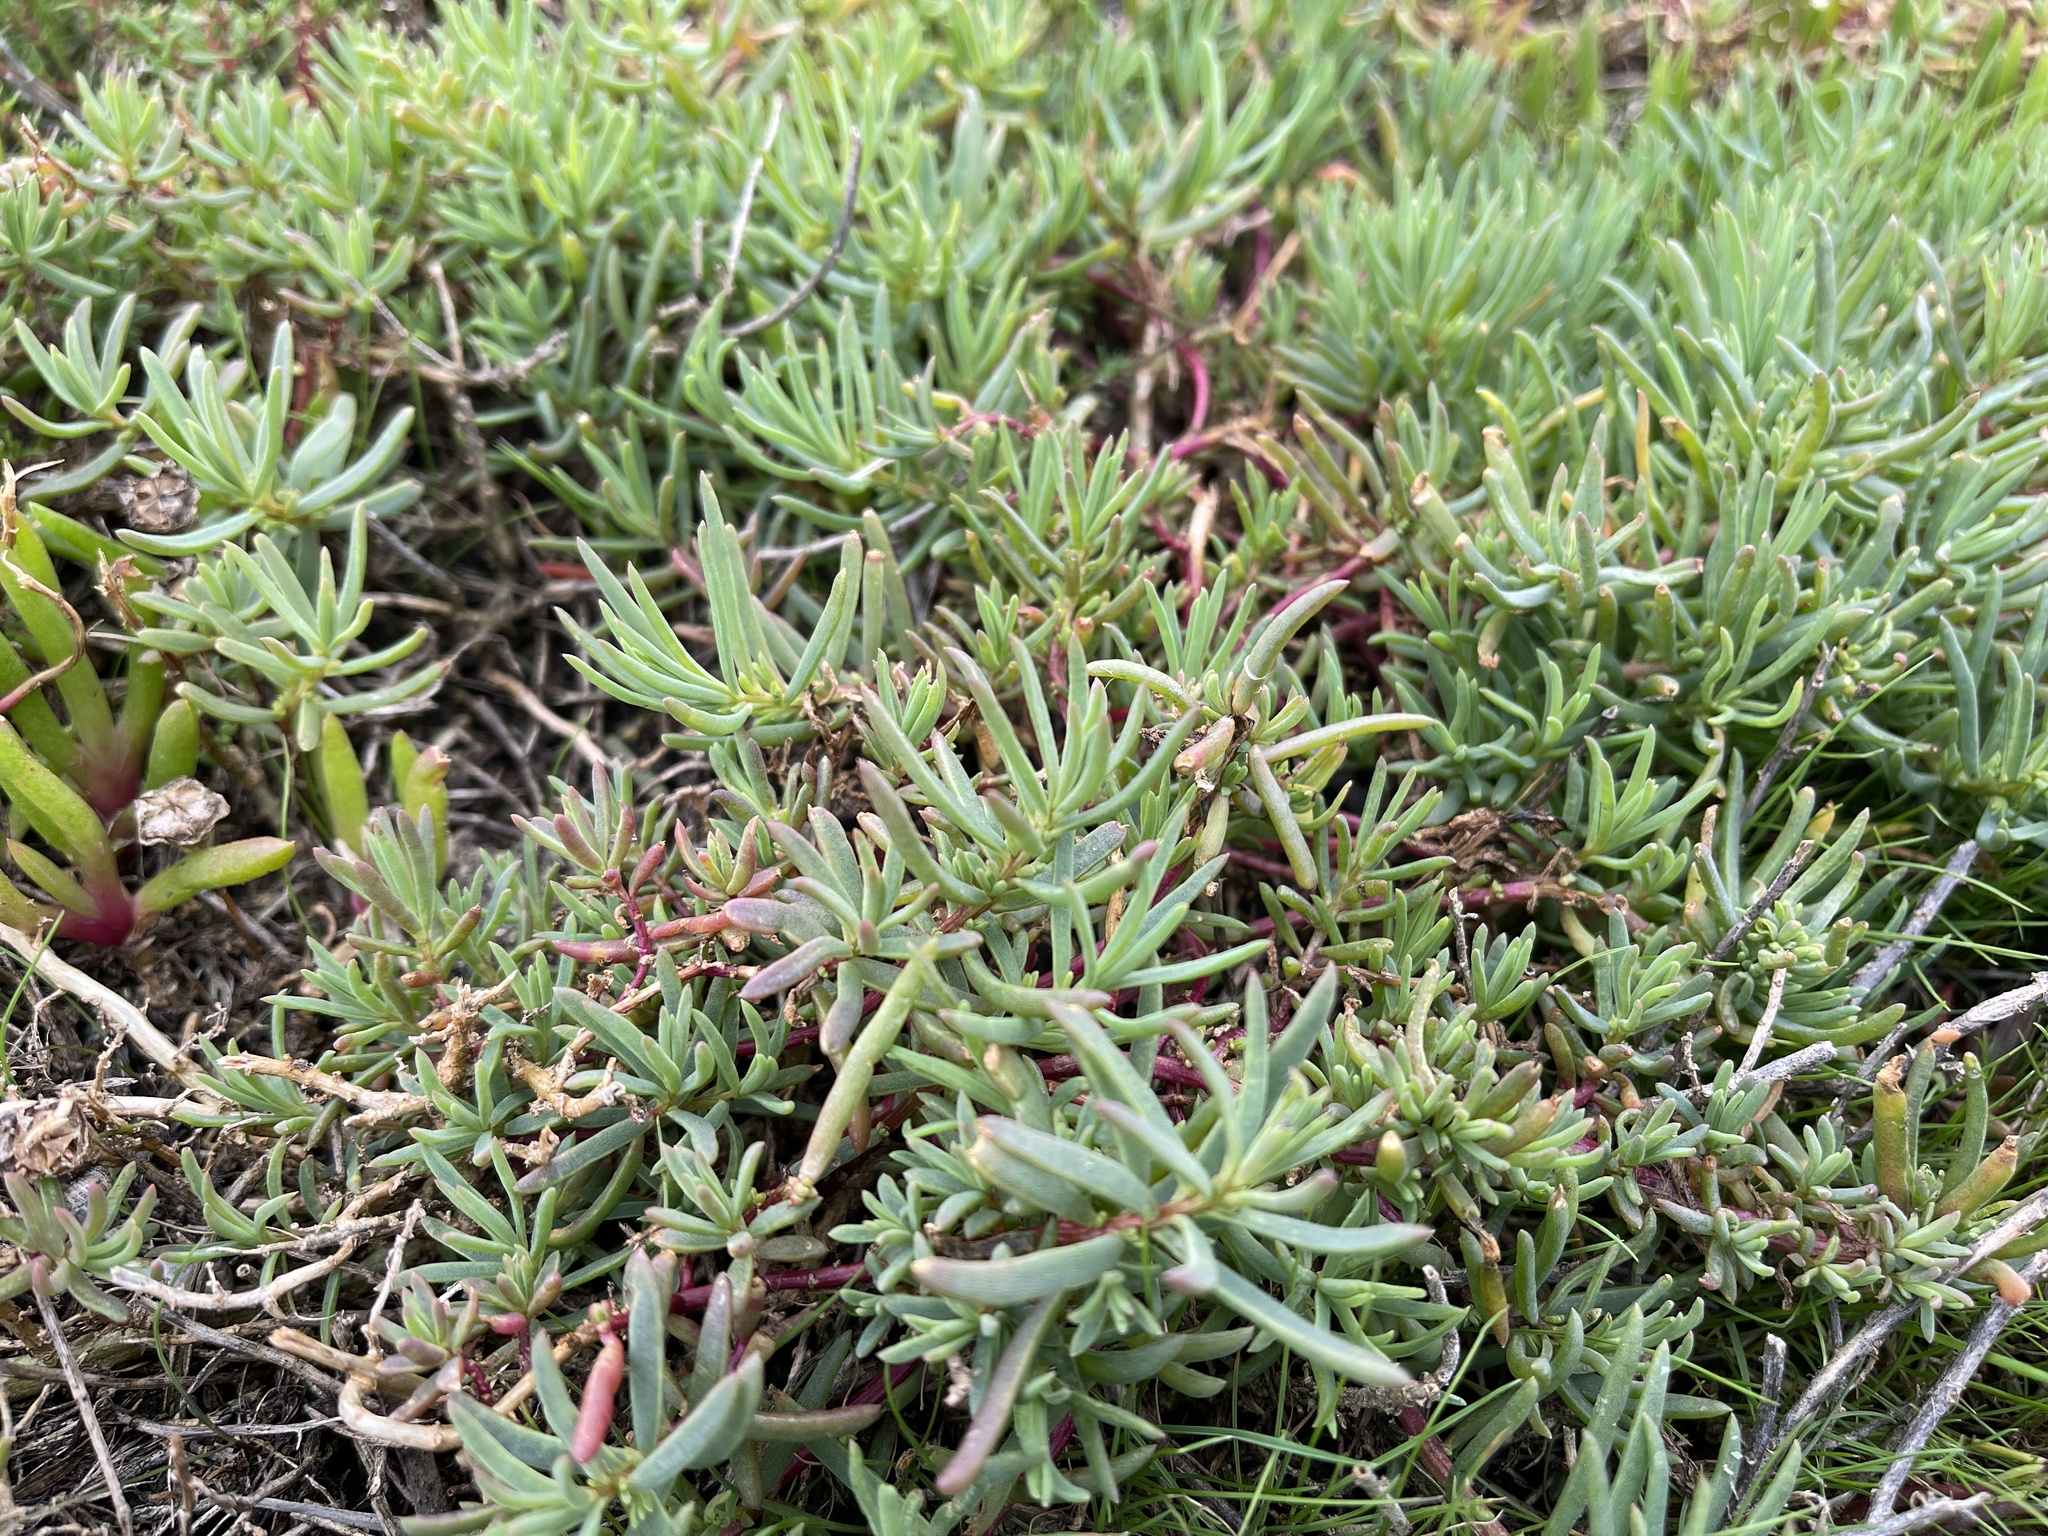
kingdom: Plantae
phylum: Tracheophyta
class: Magnoliopsida
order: Caryophyllales
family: Amaranthaceae
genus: Suaeda
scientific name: Suaeda australis
